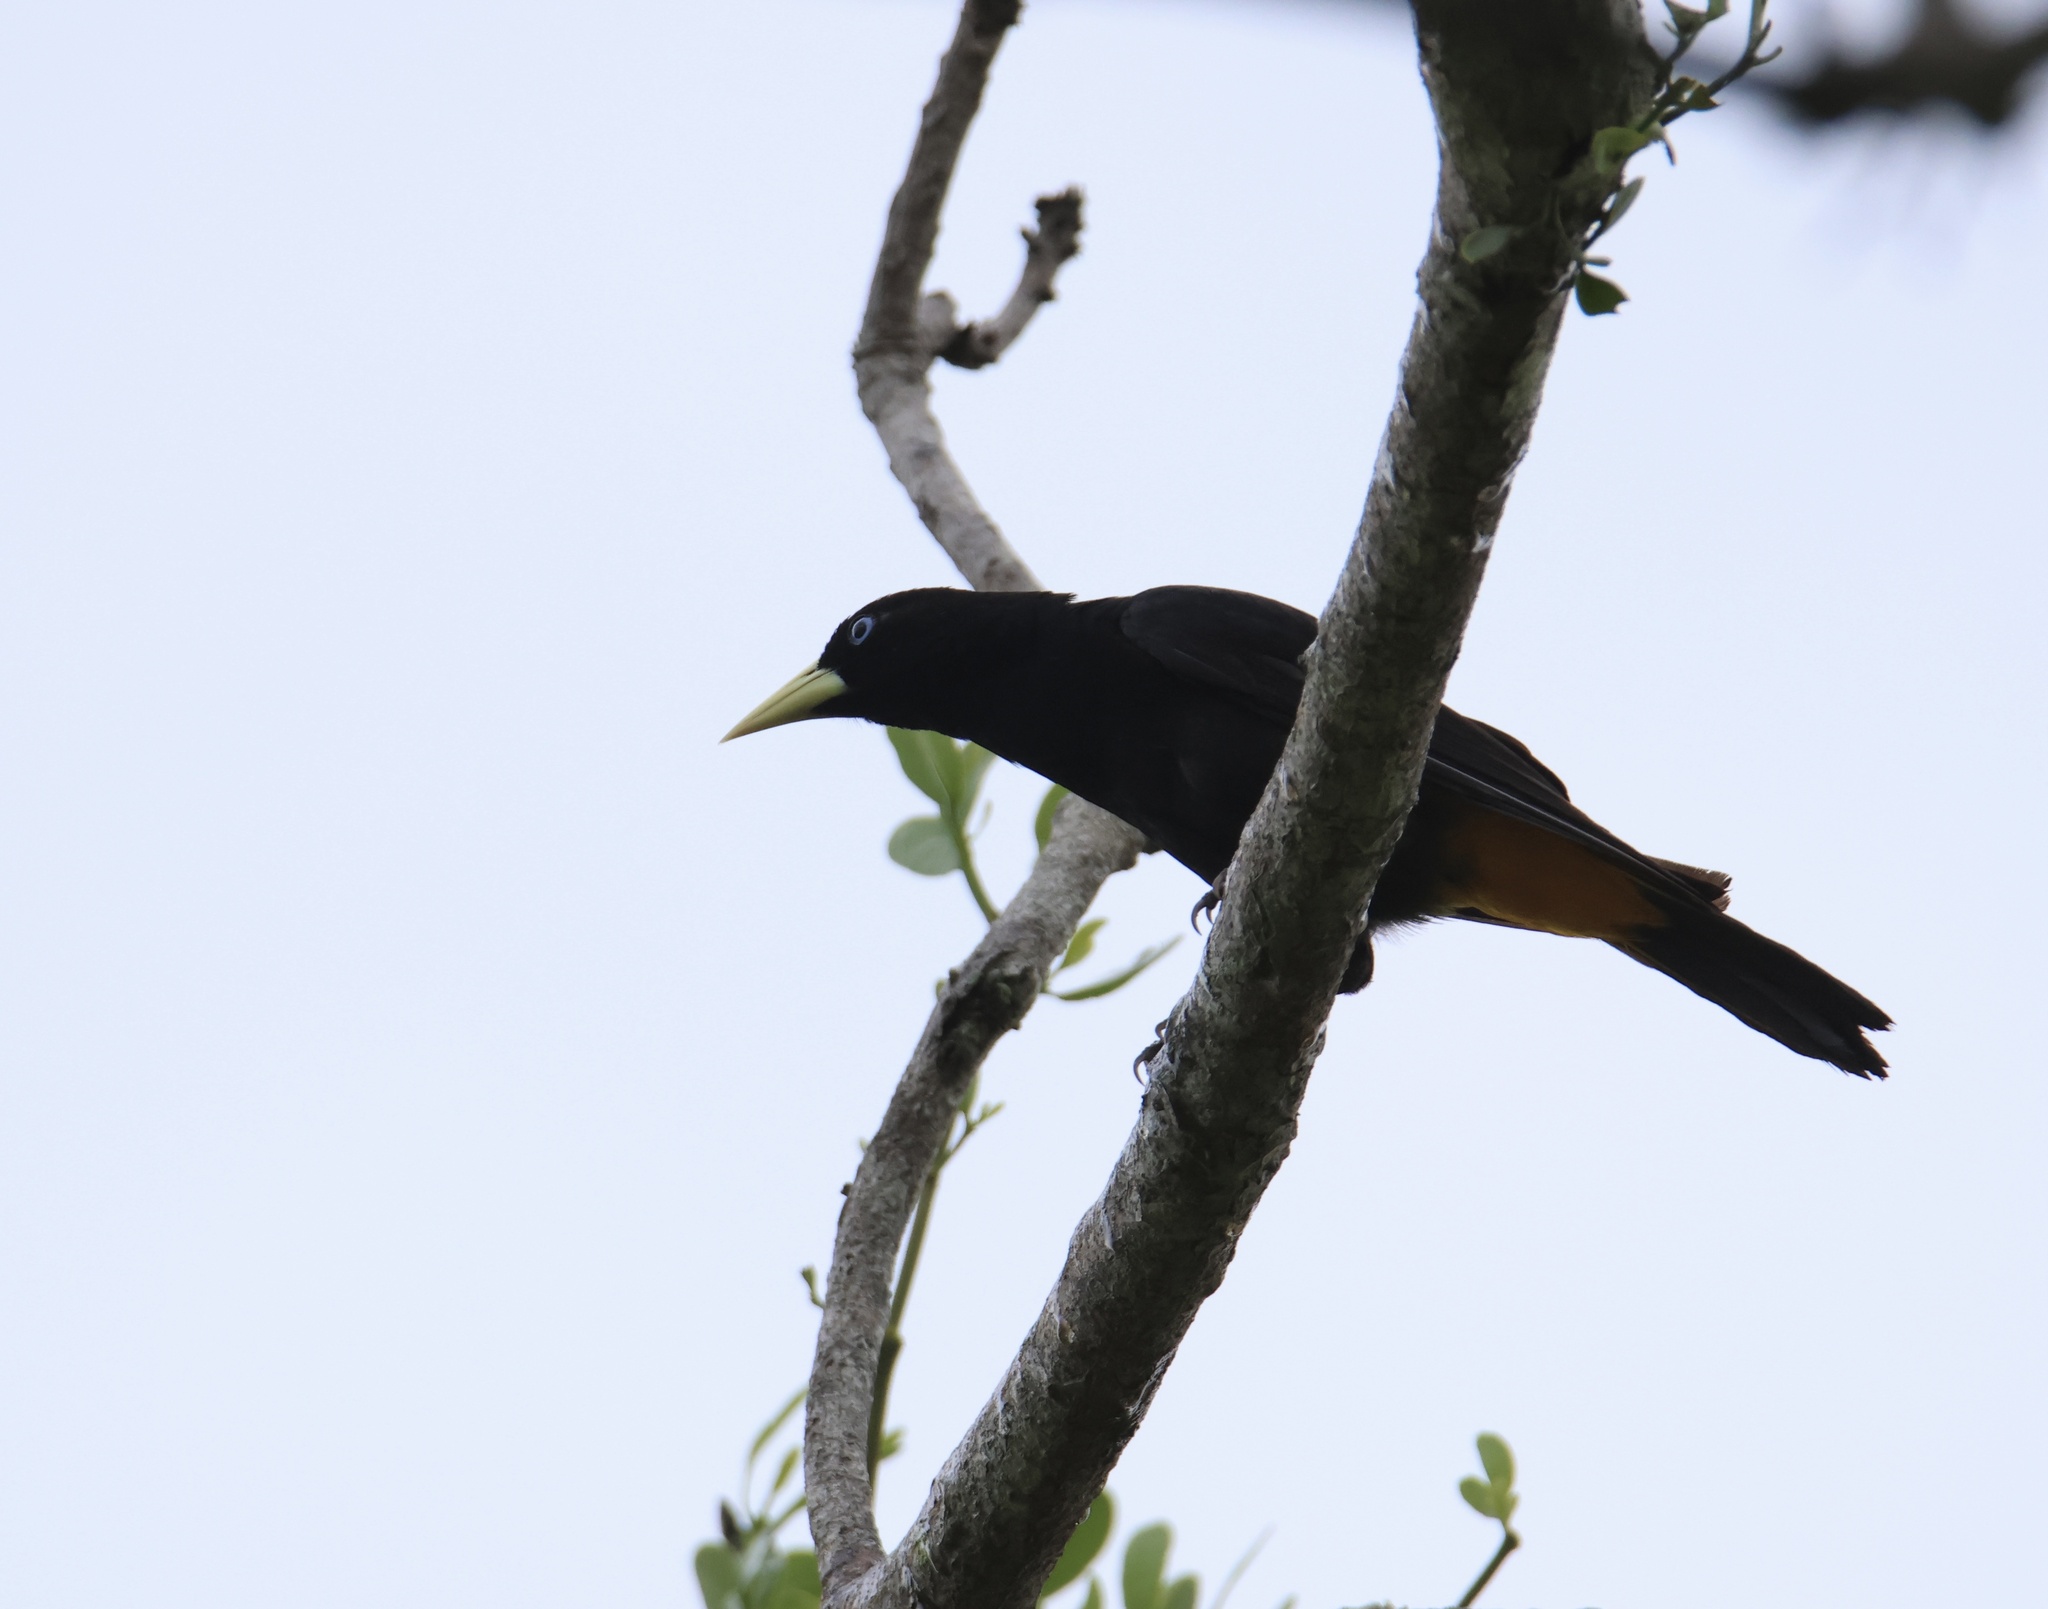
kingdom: Animalia
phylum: Chordata
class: Aves
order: Passeriformes
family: Icteridae
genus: Cacicus
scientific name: Cacicus cela
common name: Yellow-rumped cacique
